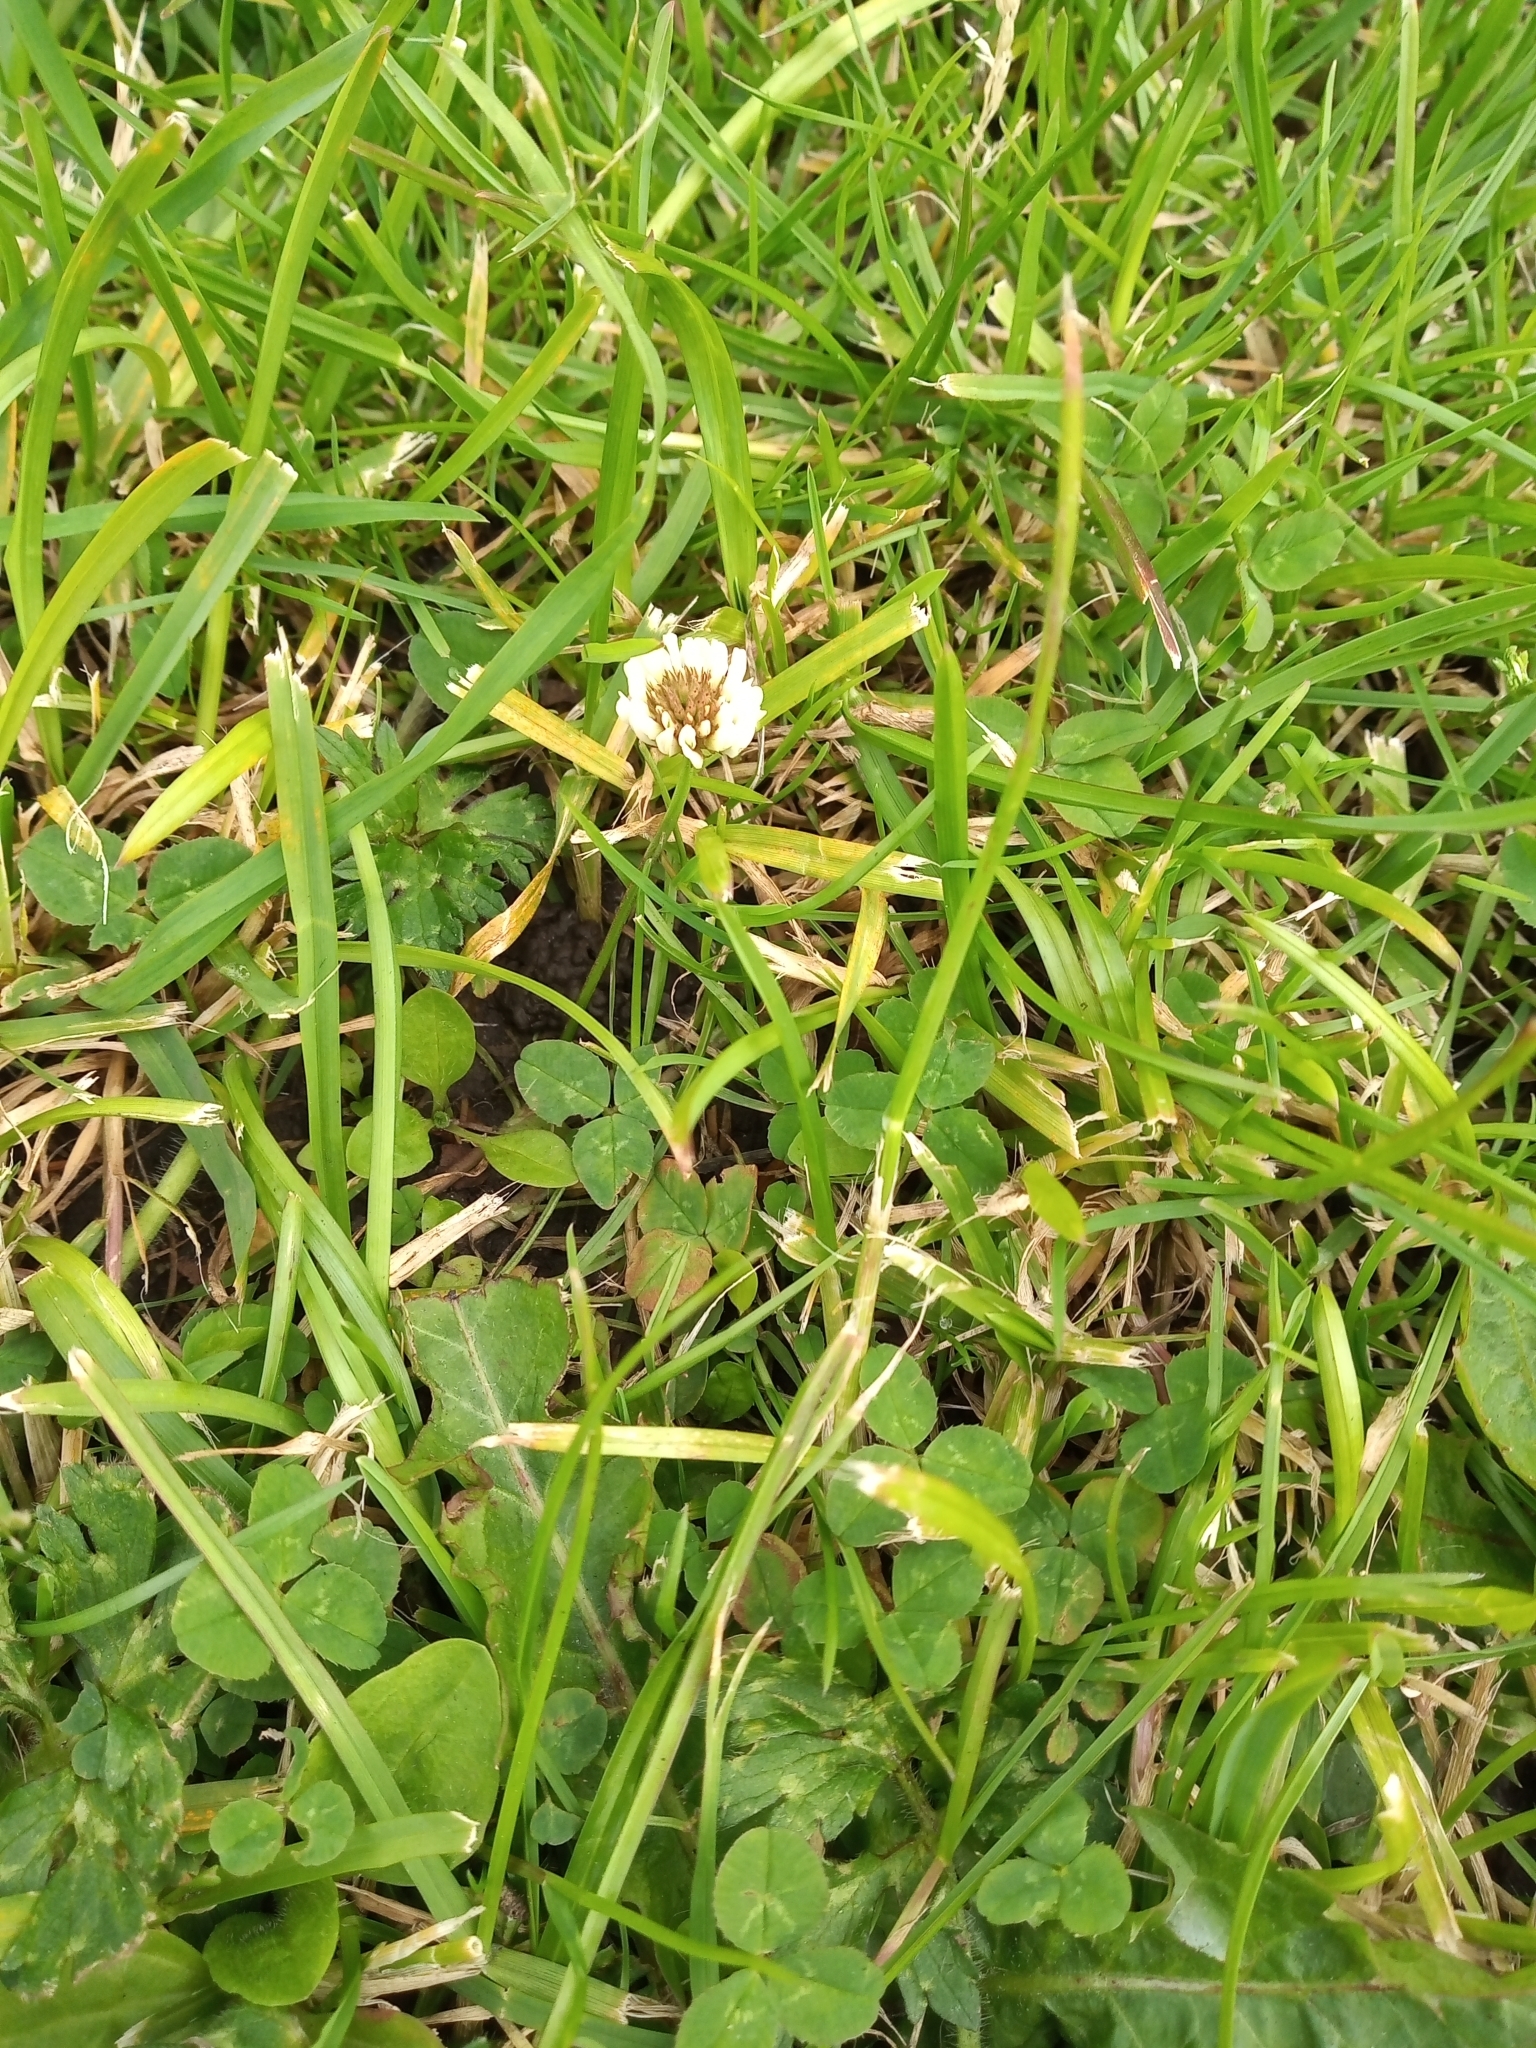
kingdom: Plantae
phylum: Tracheophyta
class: Magnoliopsida
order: Fabales
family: Fabaceae
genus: Trifolium
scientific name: Trifolium repens
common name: White clover
